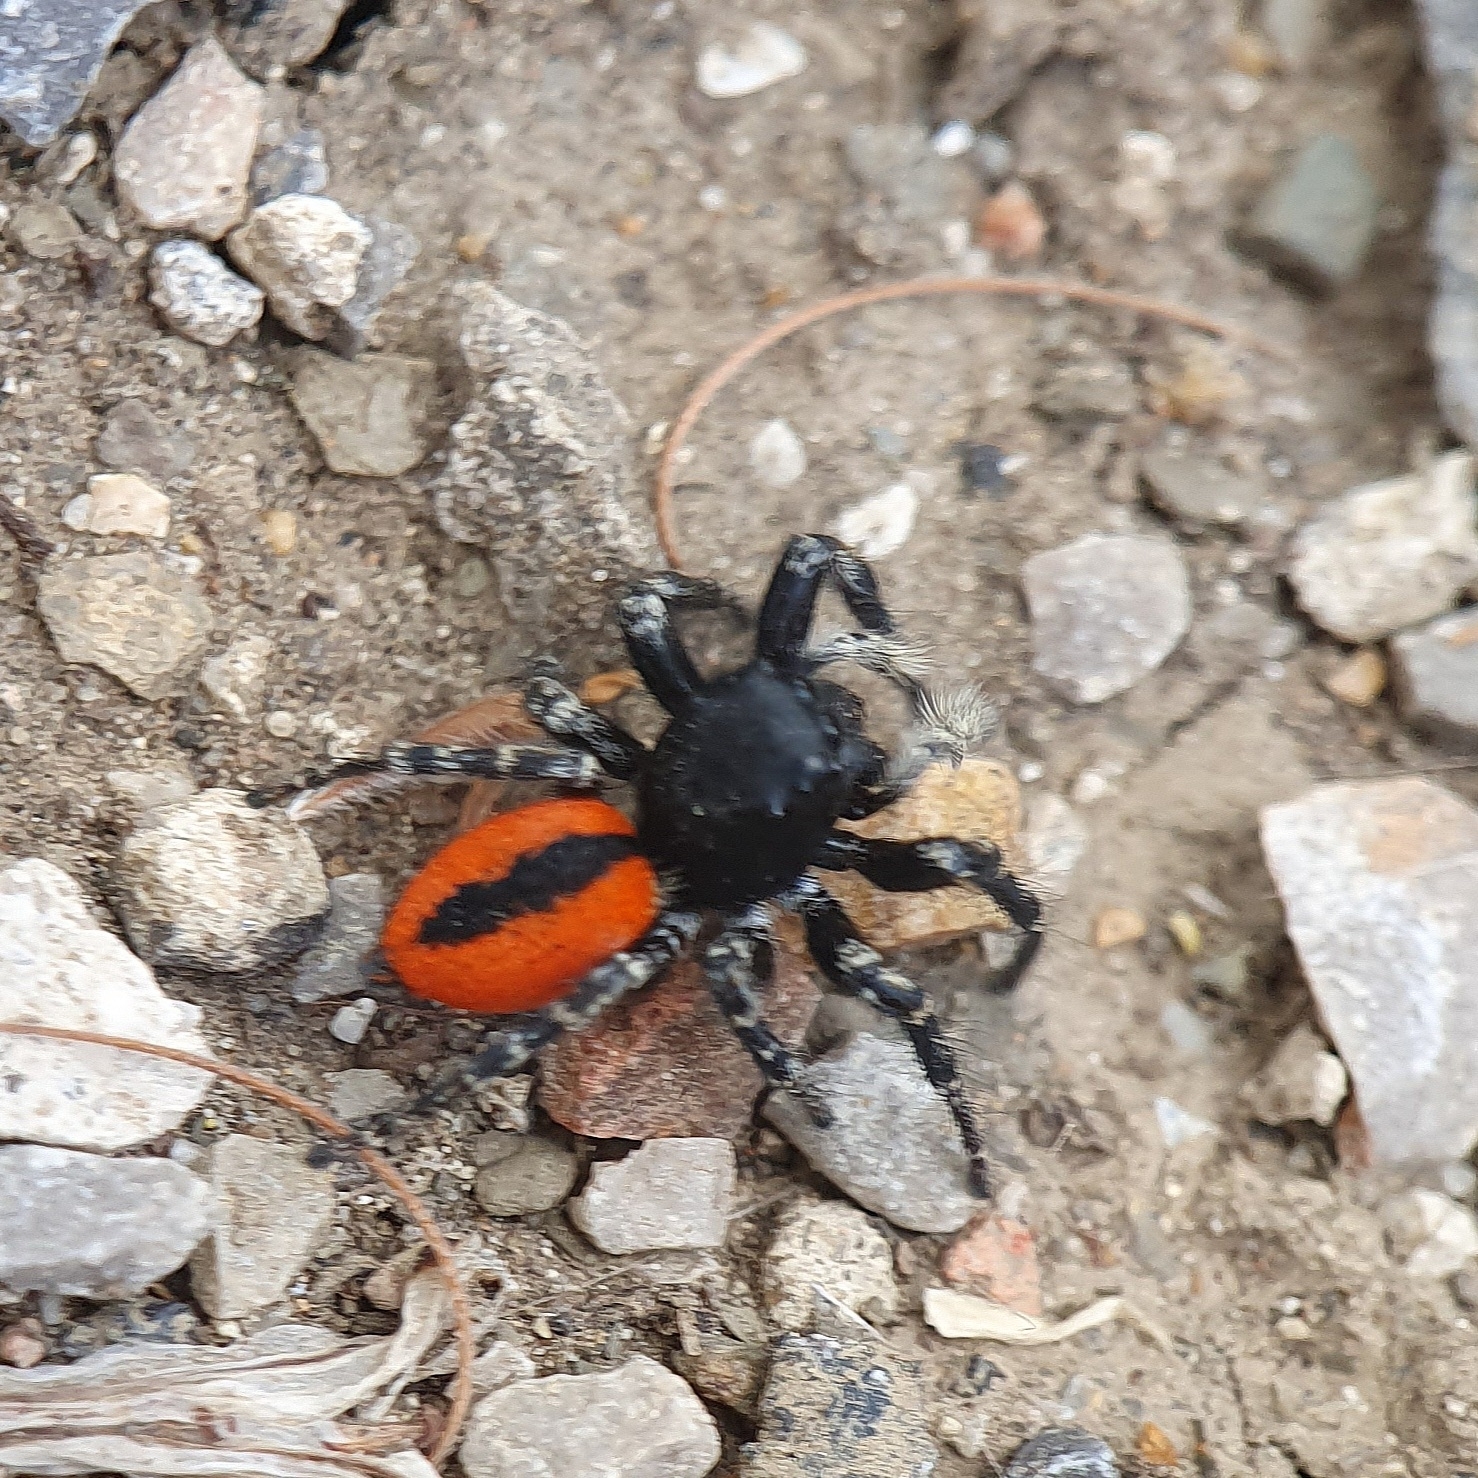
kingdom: Animalia
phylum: Arthropoda
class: Arachnida
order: Araneae
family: Salticidae
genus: Philaeus
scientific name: Philaeus chrysops
